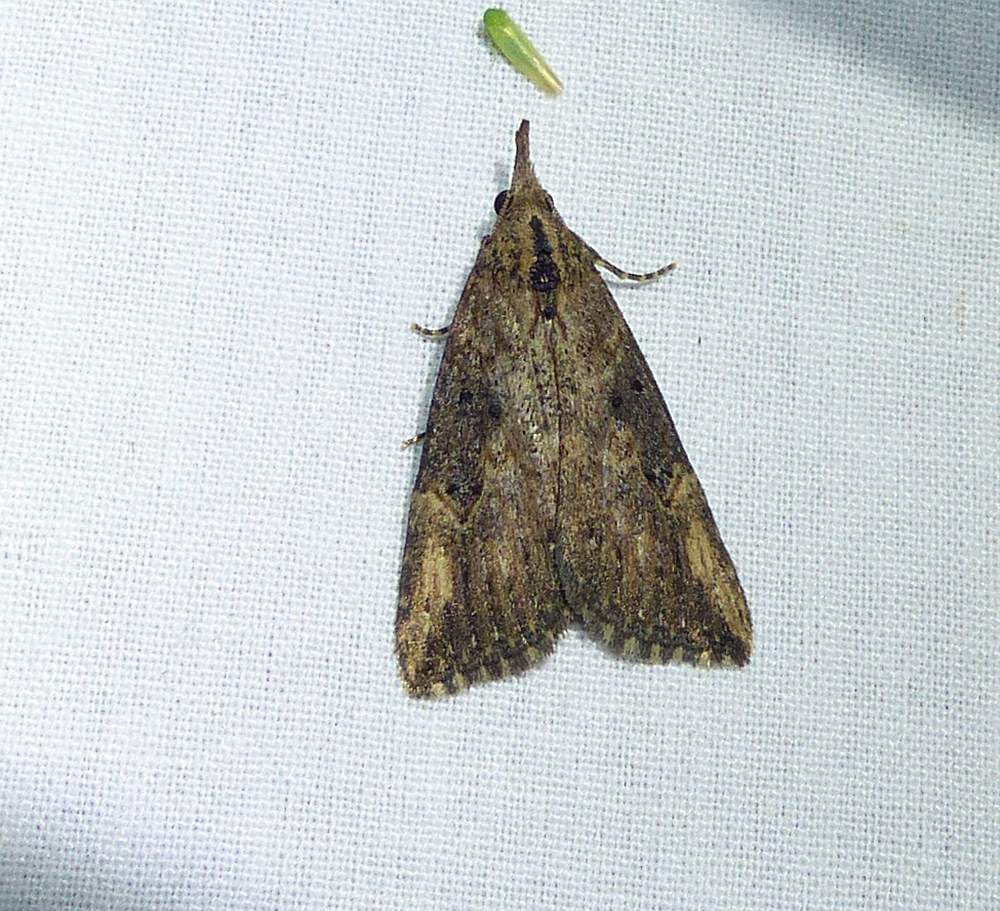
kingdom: Animalia
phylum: Arthropoda
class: Insecta
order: Lepidoptera
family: Erebidae
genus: Hypena
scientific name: Hypena humuli
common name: Hop vine snout
